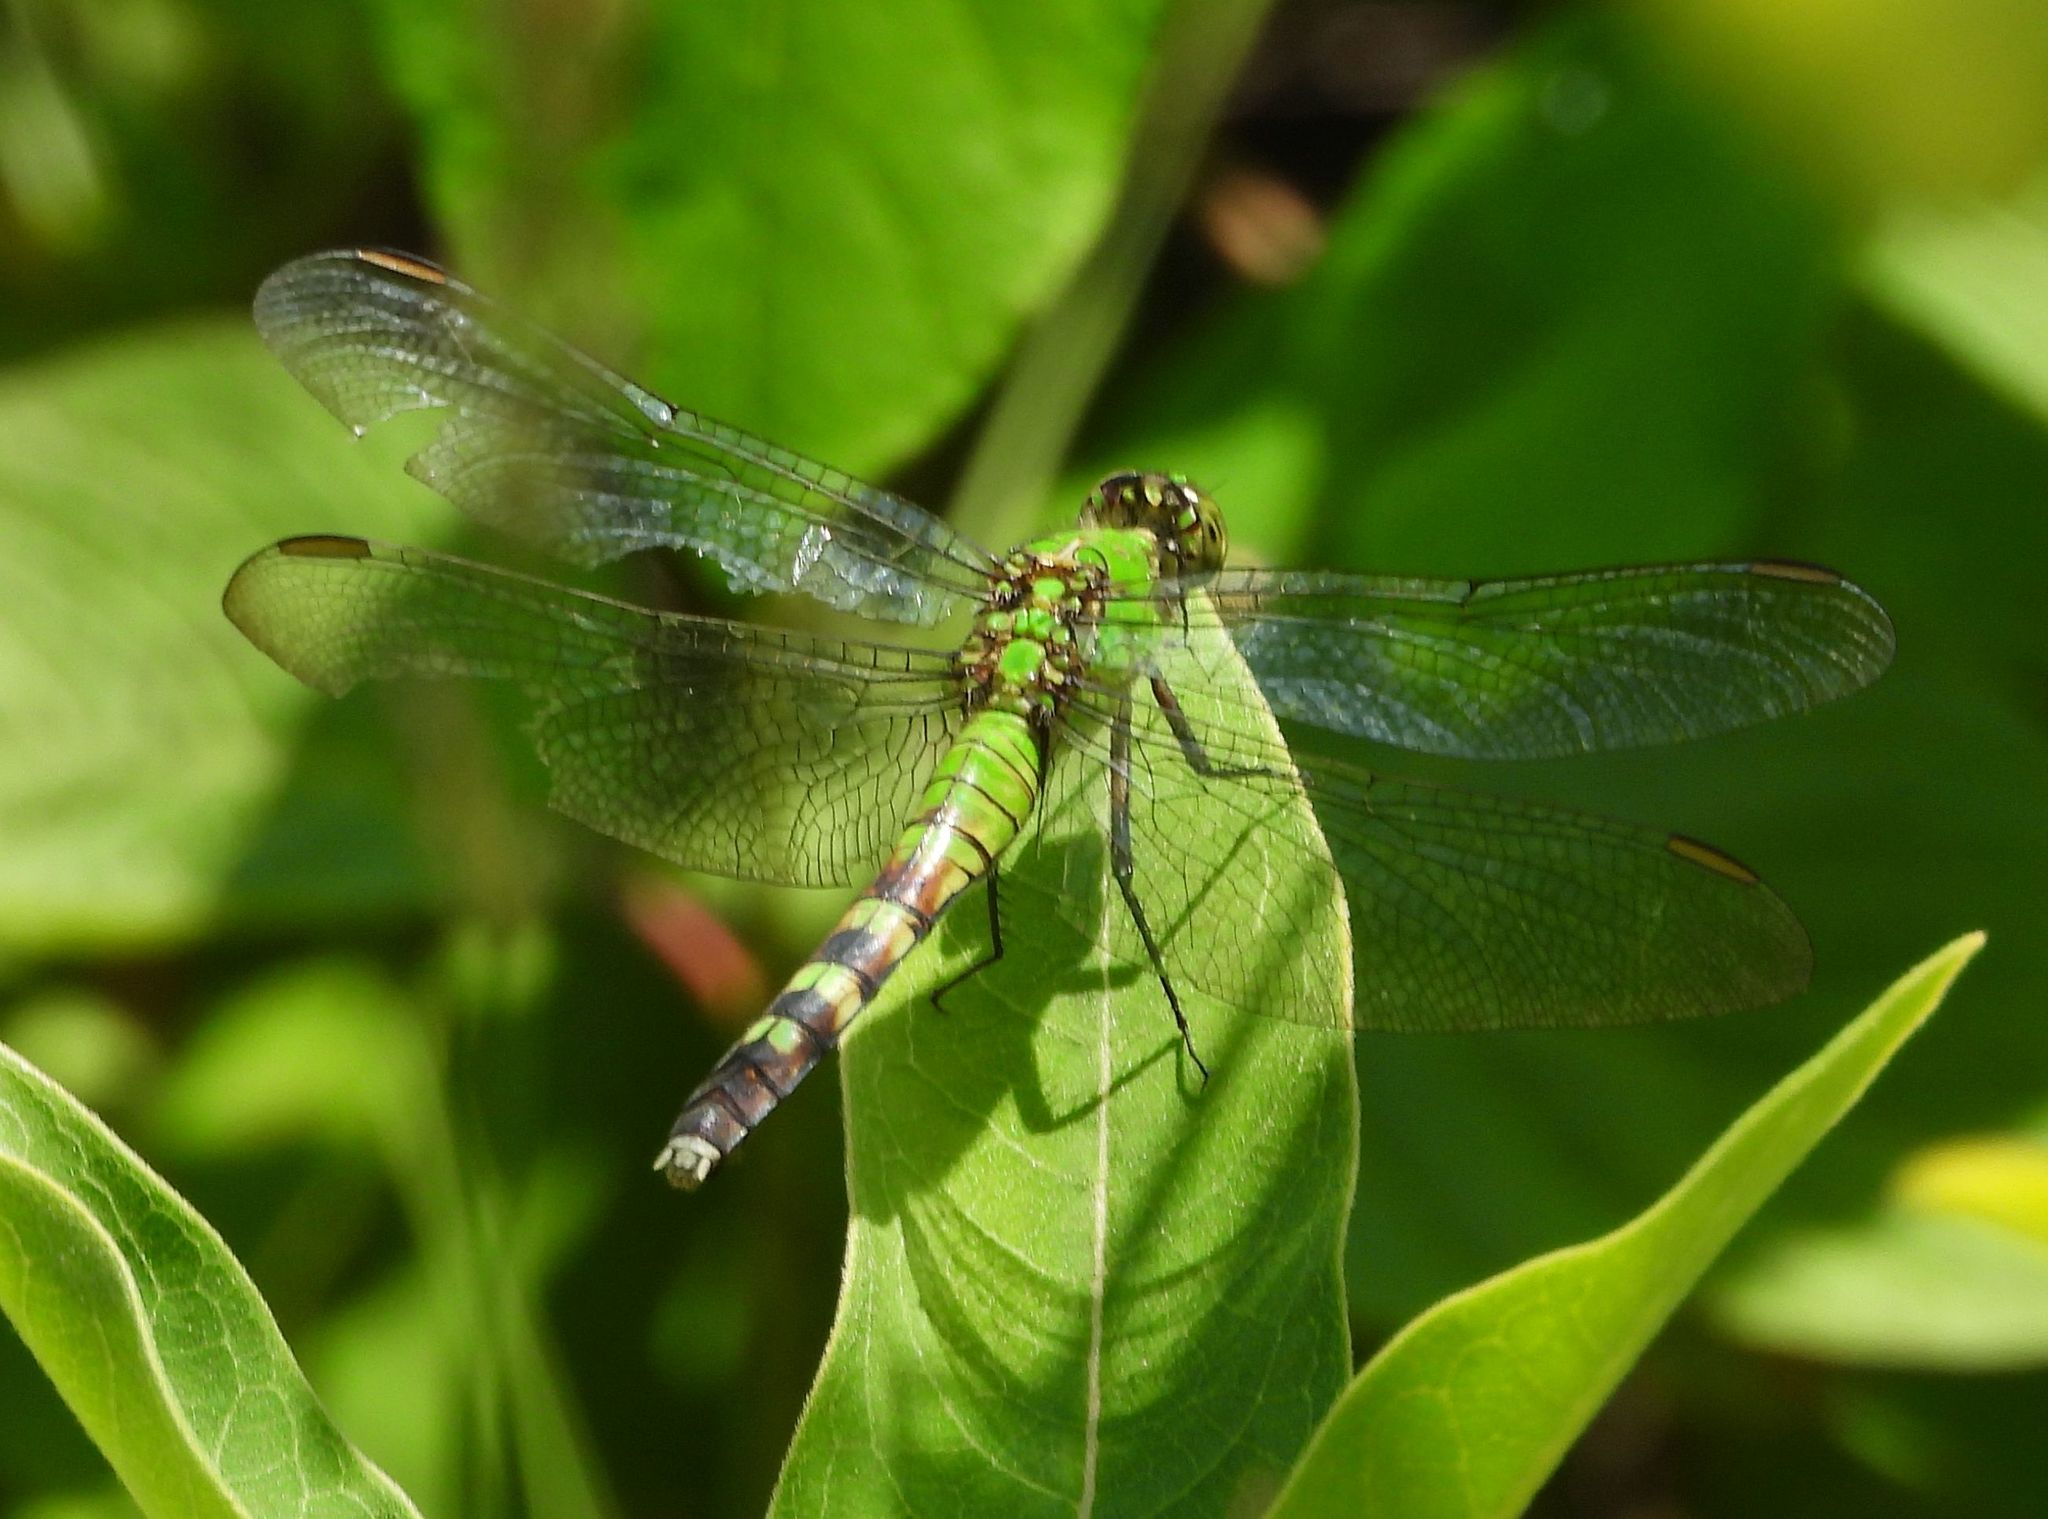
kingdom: Animalia
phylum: Arthropoda
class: Insecta
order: Odonata
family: Libellulidae
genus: Erythemis
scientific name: Erythemis simplicicollis
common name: Eastern pondhawk
